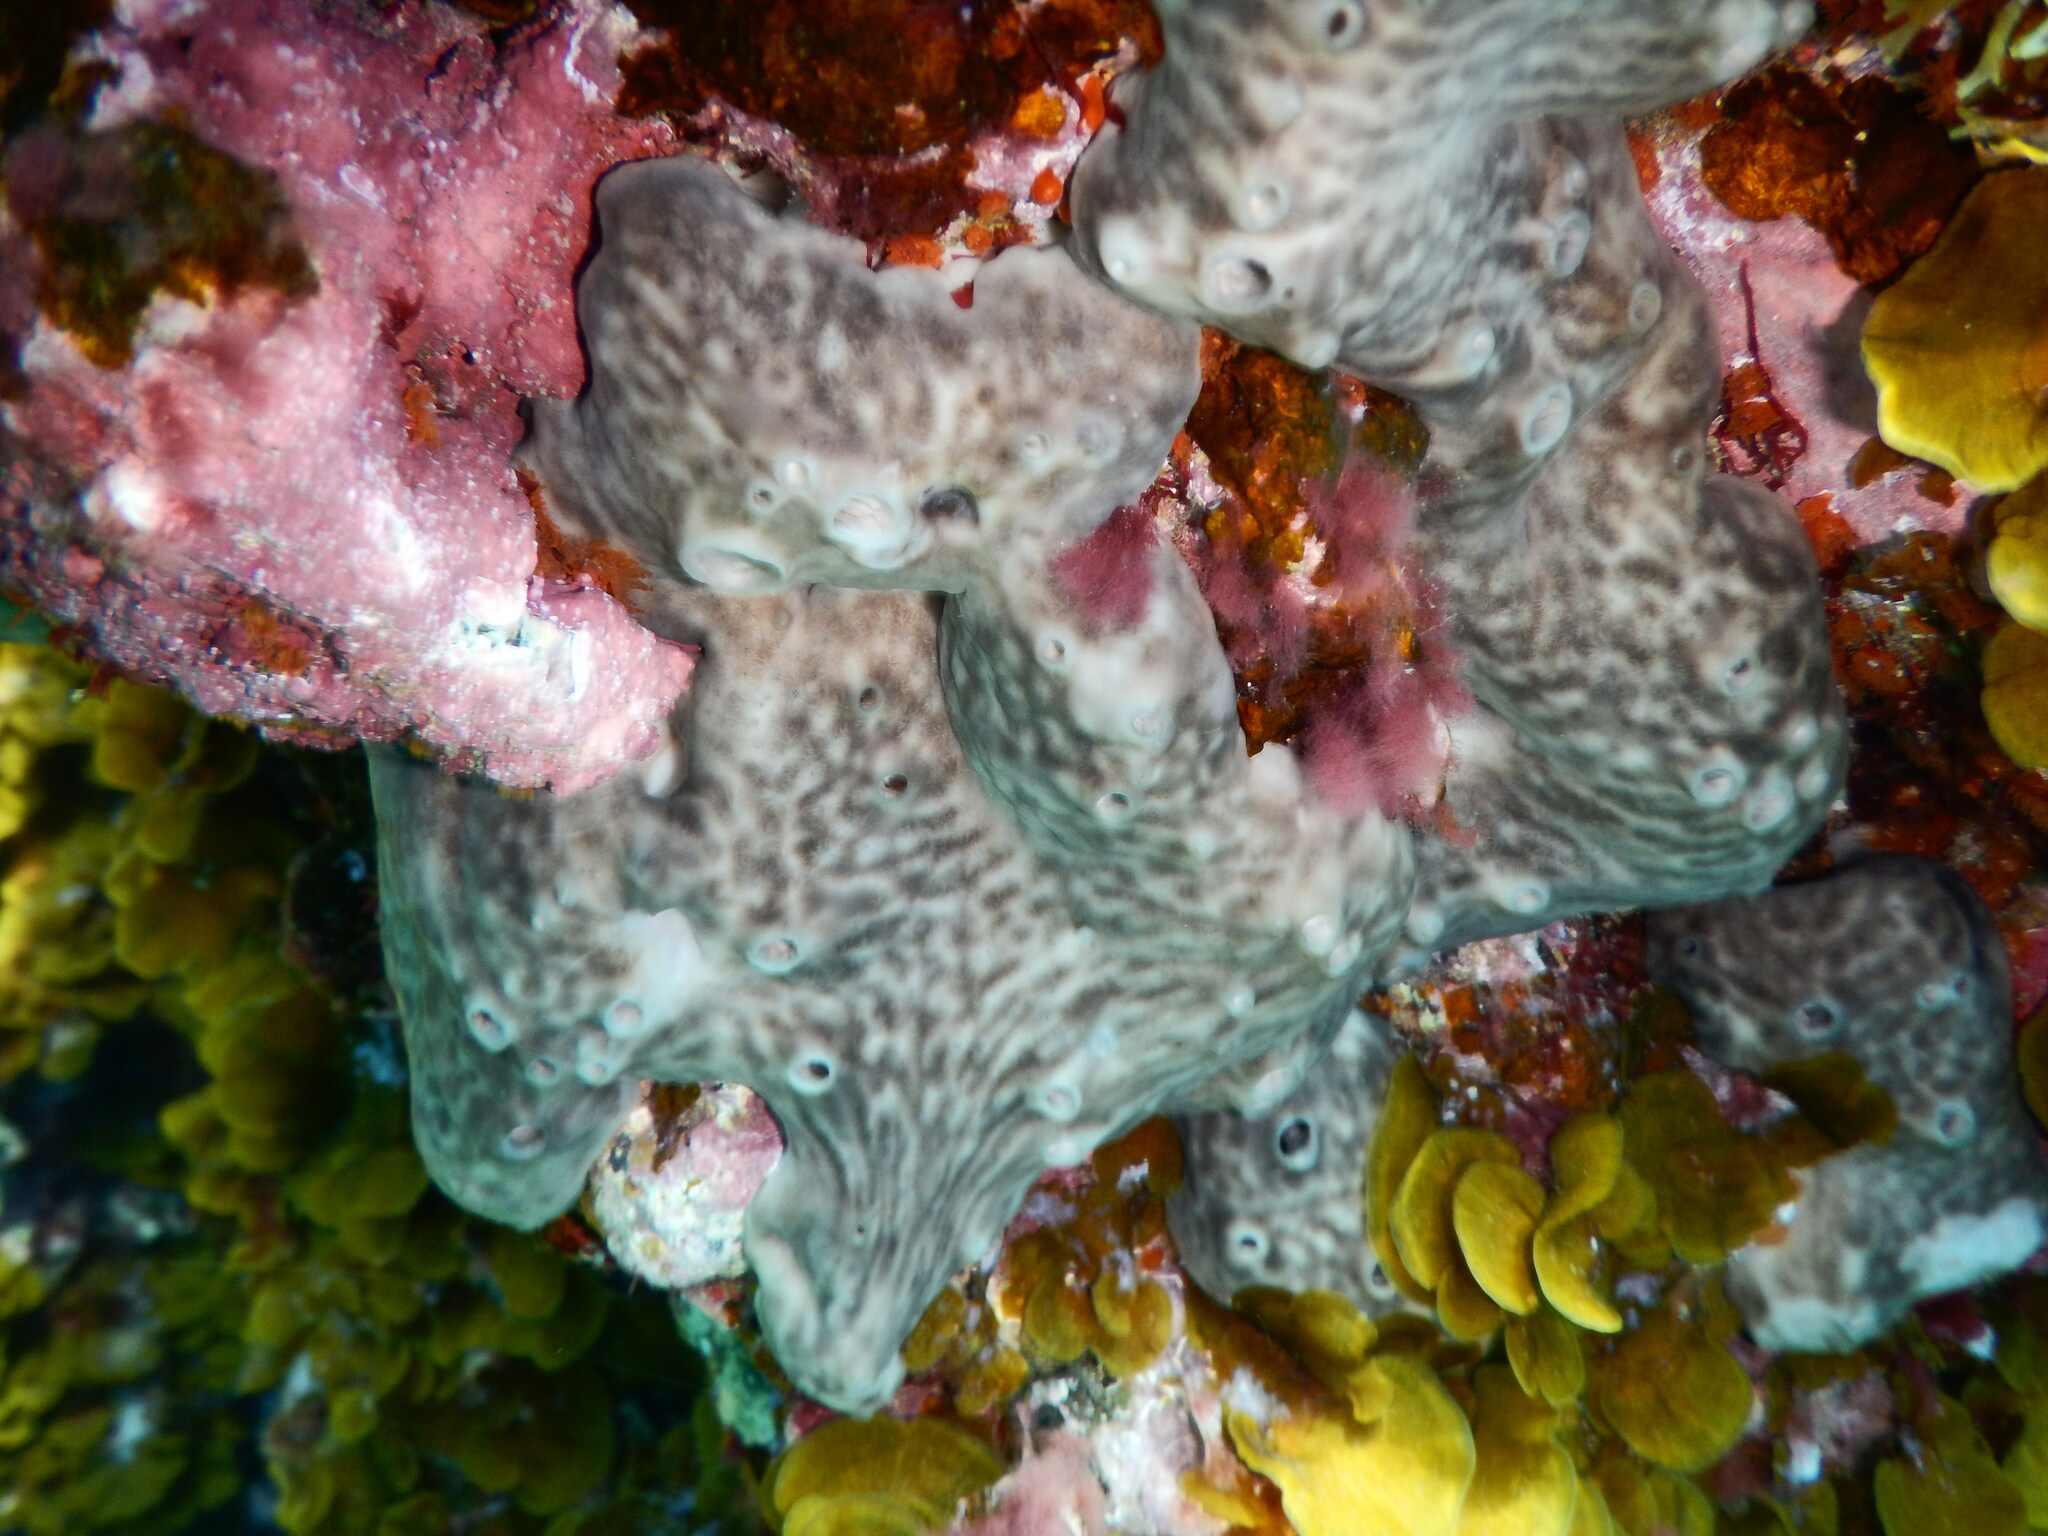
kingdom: Animalia
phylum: Porifera
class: Demospongiae
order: Chondrosiida
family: Chondrosiidae
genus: Chondrosia
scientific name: Chondrosia reniformis
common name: Chicken liver sponge
